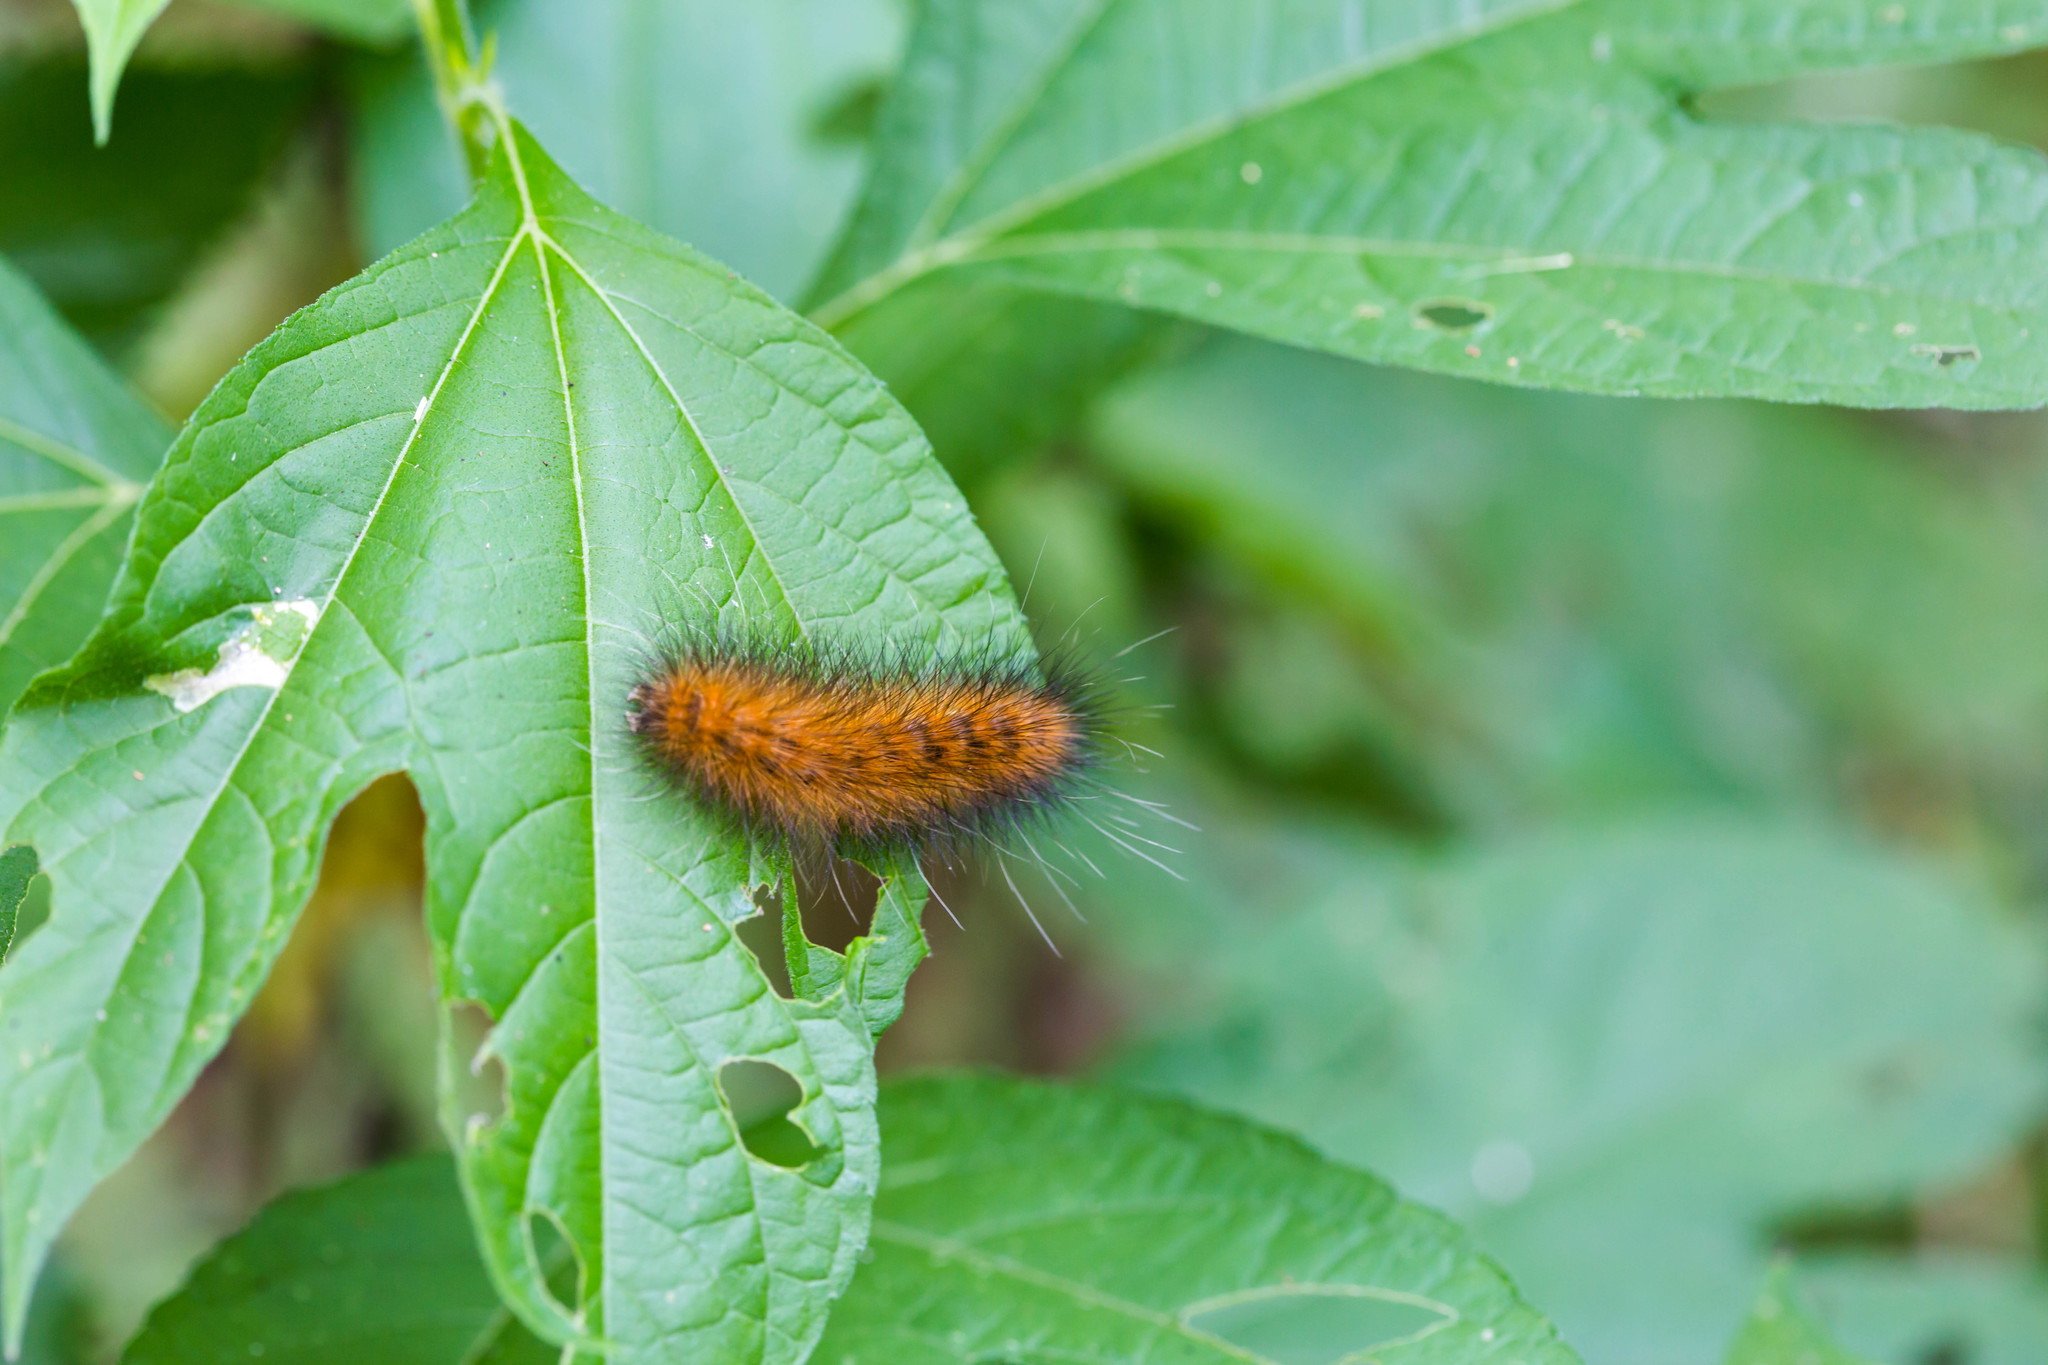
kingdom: Animalia
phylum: Arthropoda
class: Insecta
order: Lepidoptera
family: Erebidae
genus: Spilosoma
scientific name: Spilosoma virginica
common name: Virginia tiger moth
